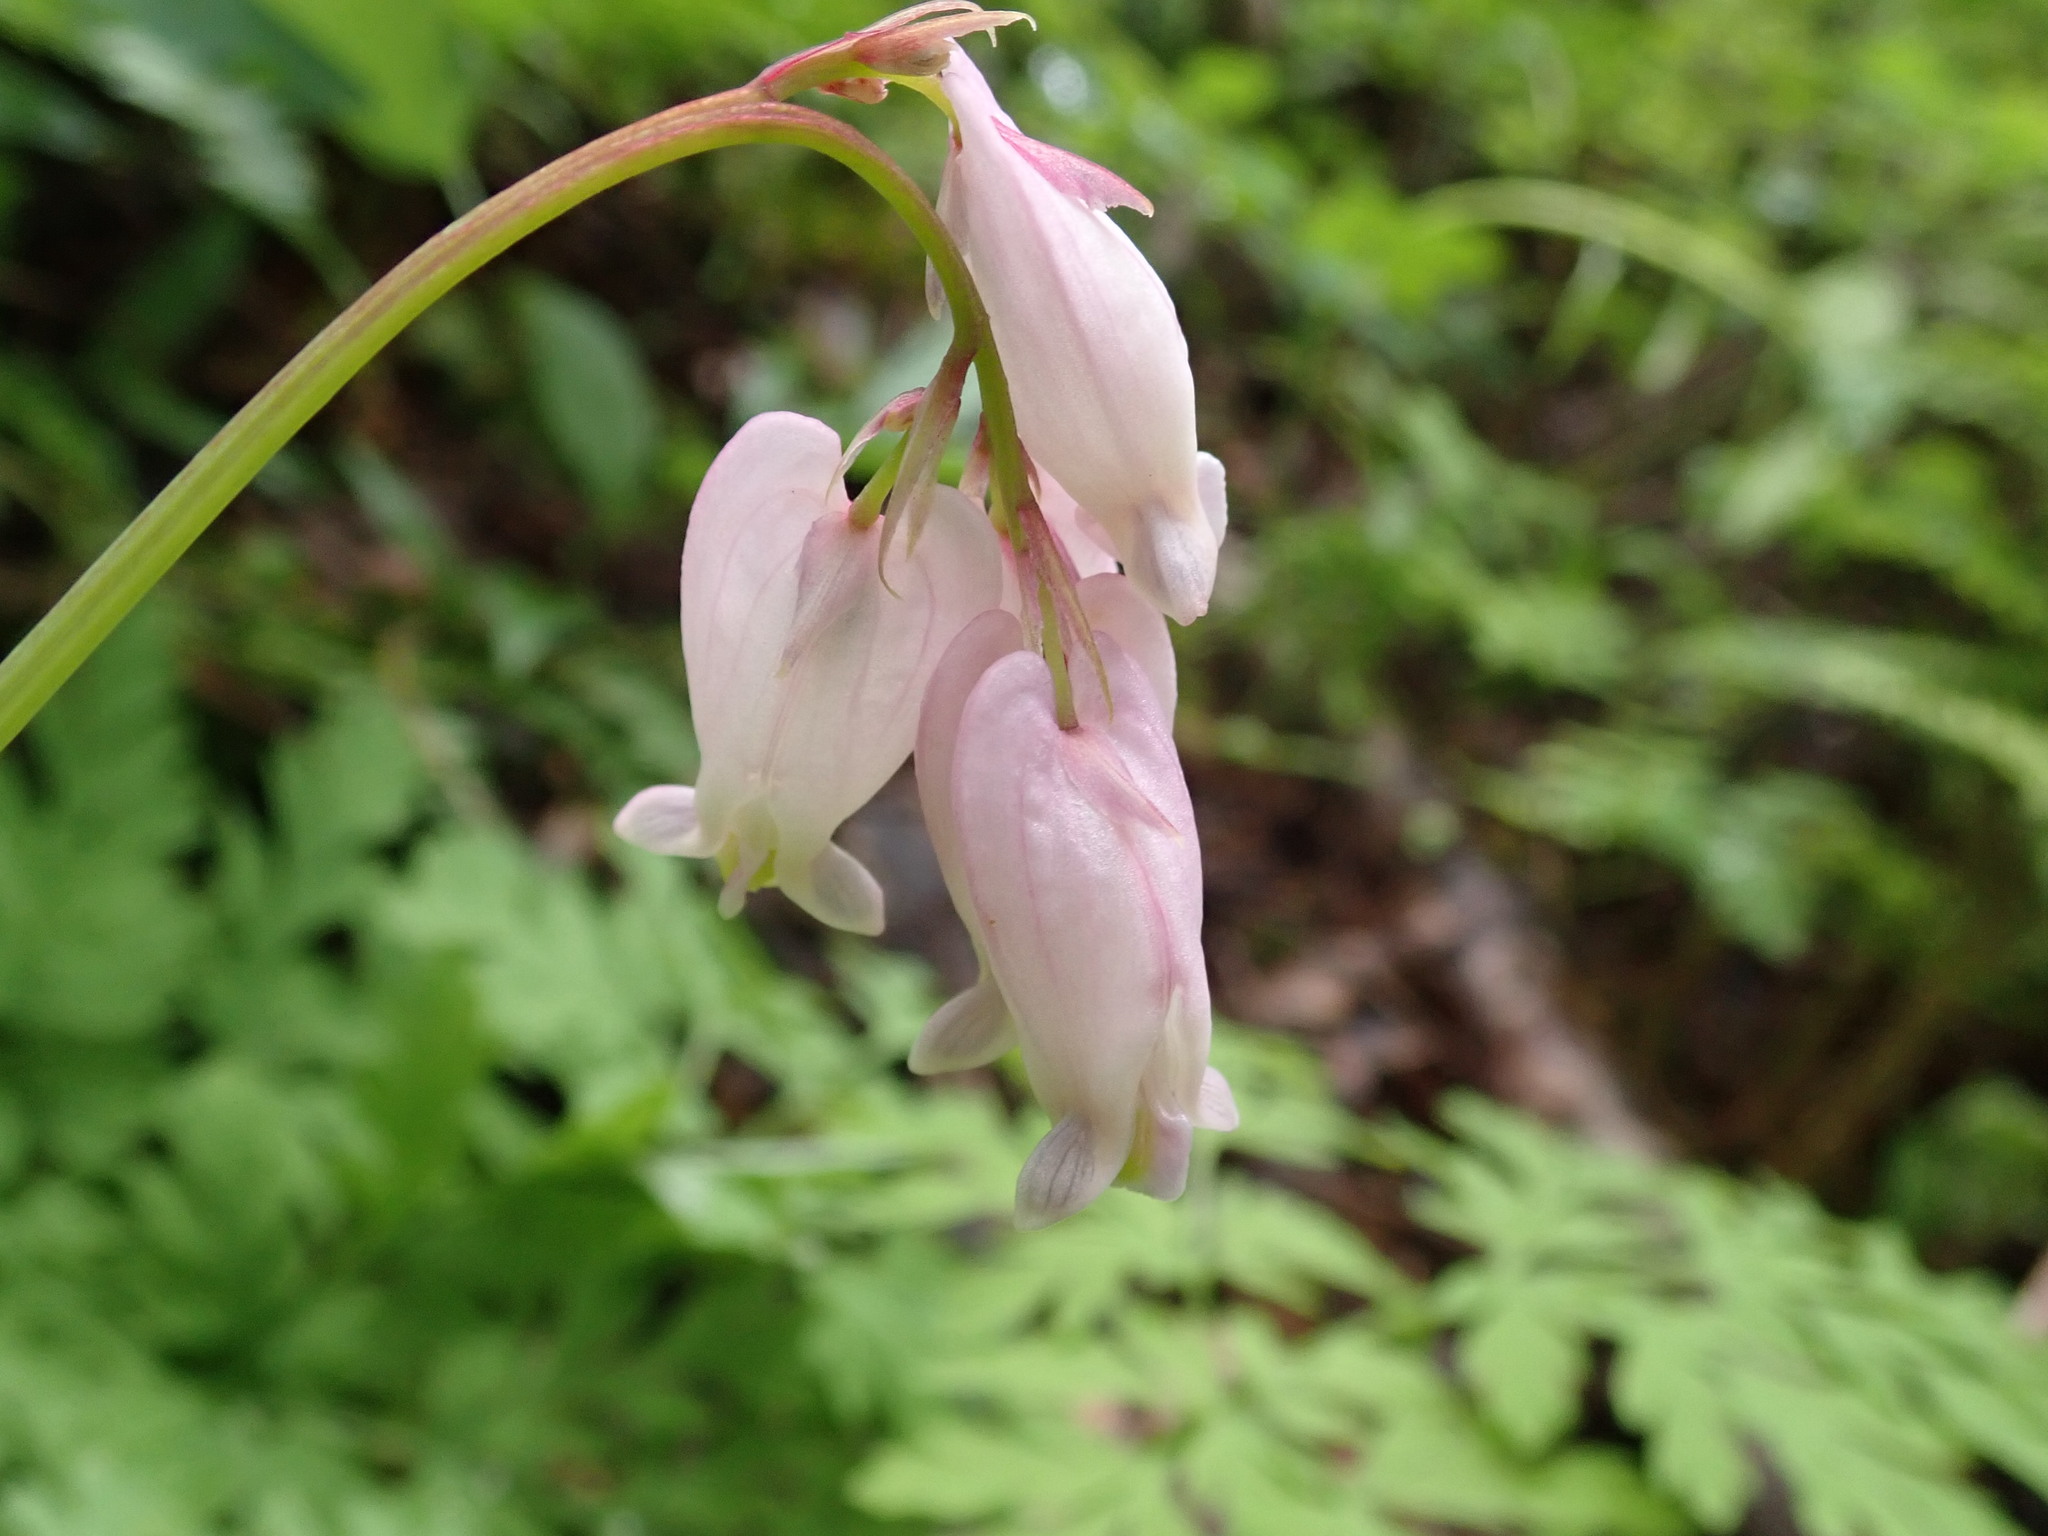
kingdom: Plantae
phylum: Tracheophyta
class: Magnoliopsida
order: Ranunculales
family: Papaveraceae
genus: Dicentra
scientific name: Dicentra formosa
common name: Bleeding-heart
